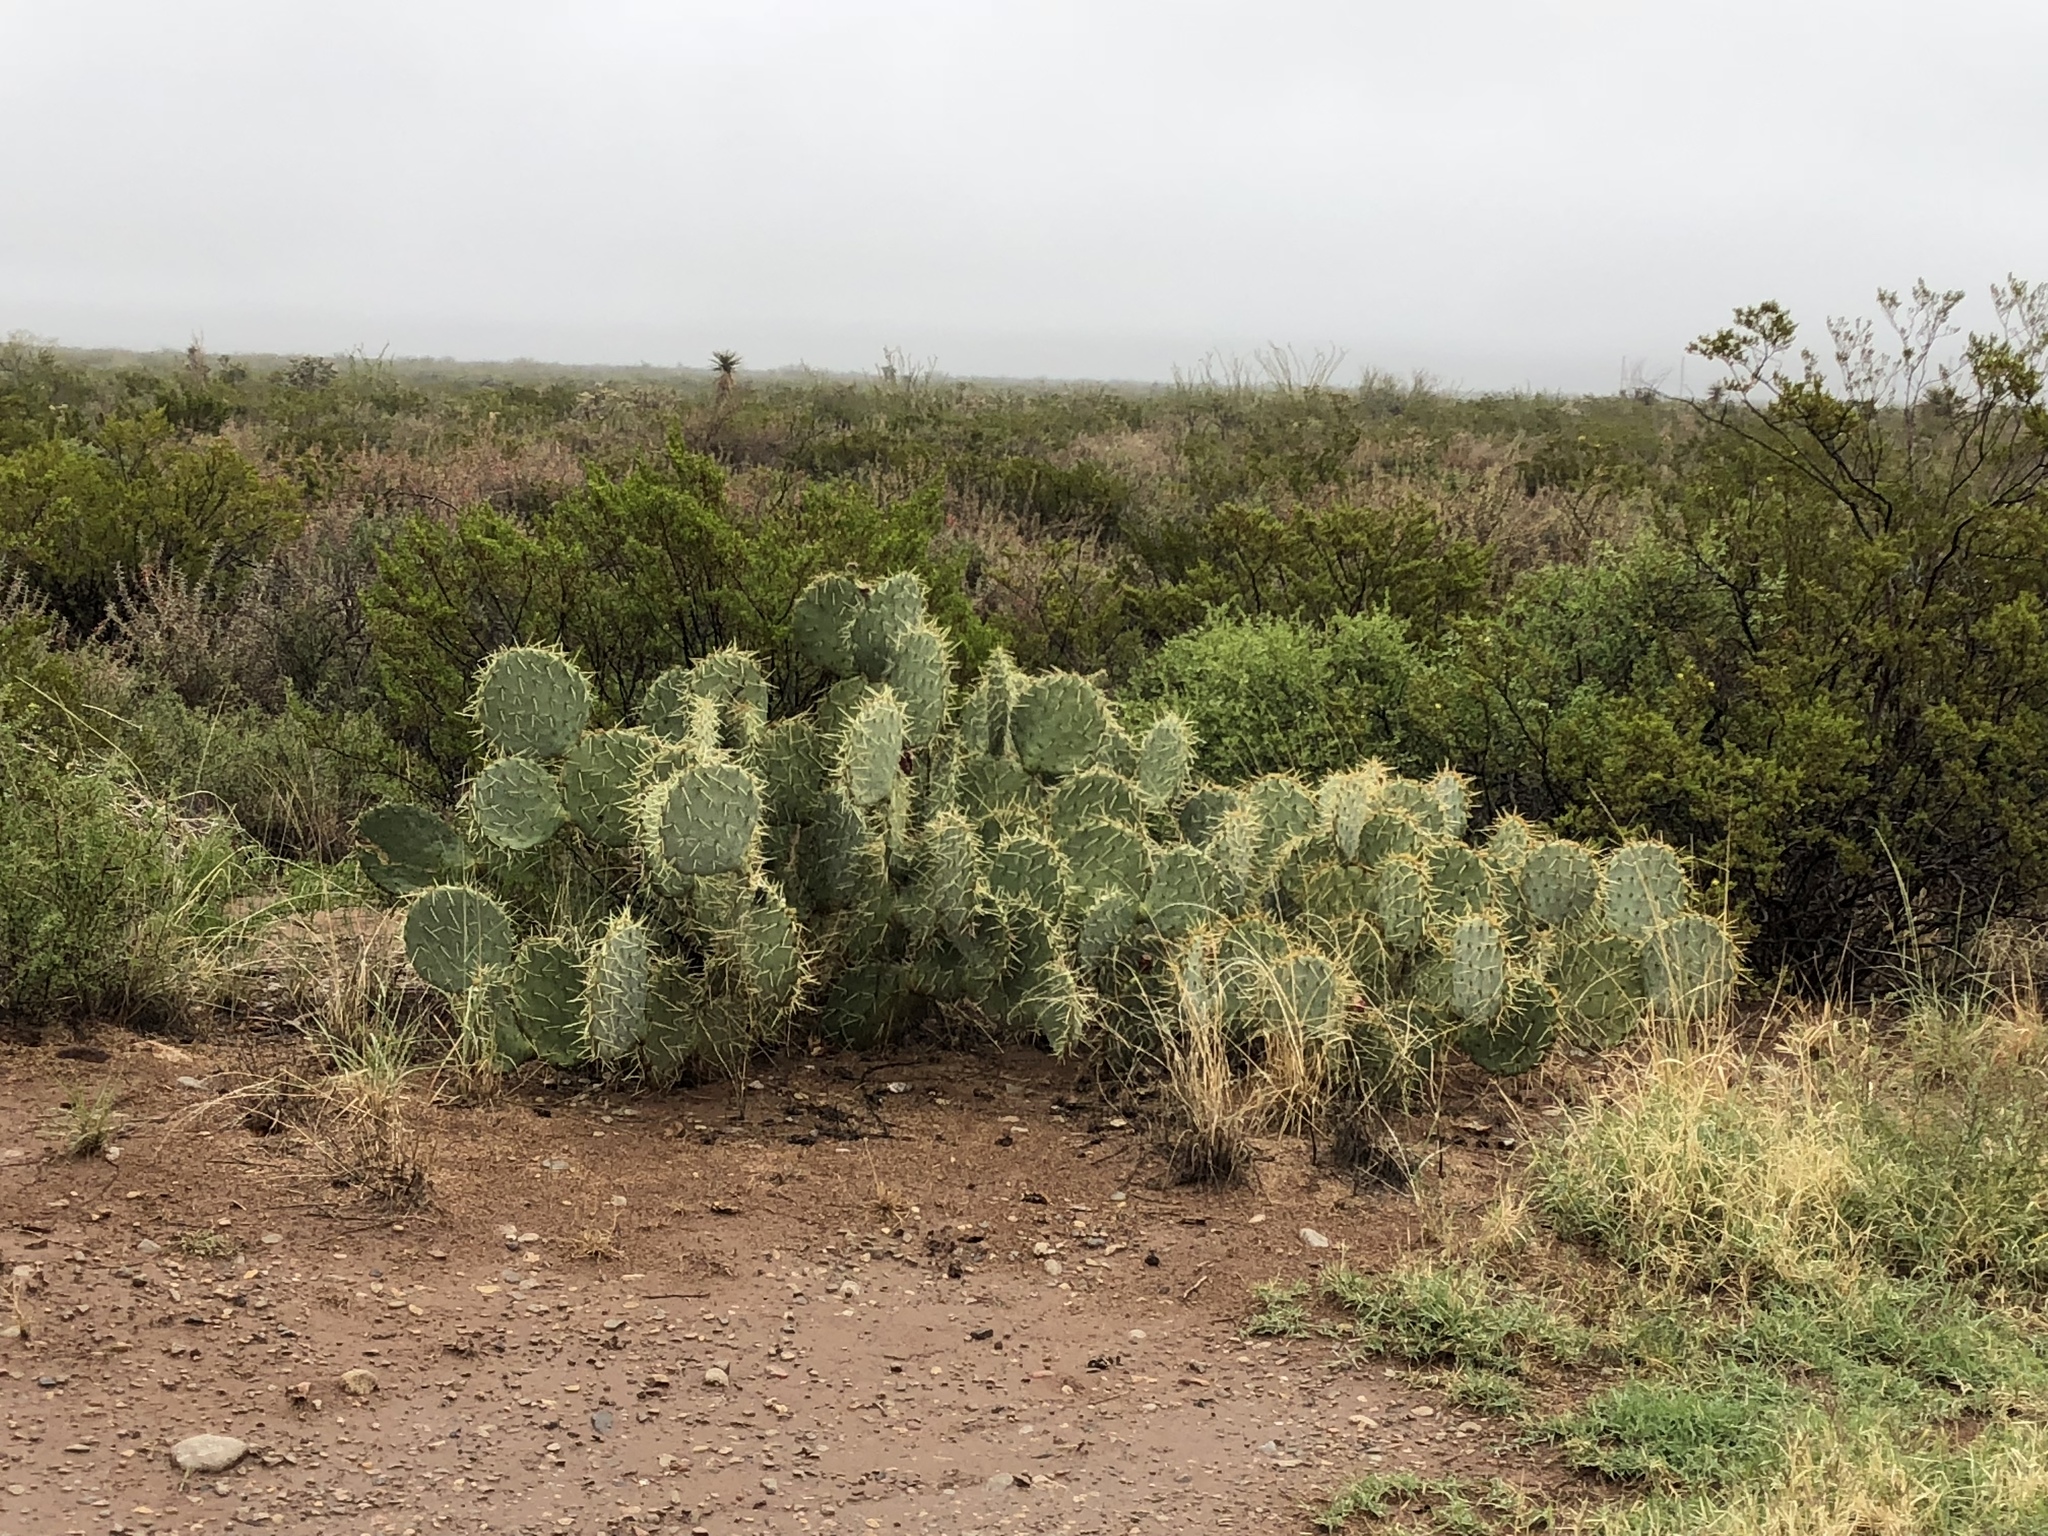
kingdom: Plantae
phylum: Tracheophyta
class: Magnoliopsida
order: Caryophyllales
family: Cactaceae
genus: Opuntia
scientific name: Opuntia phaeacantha
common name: New mexico prickly-pear
